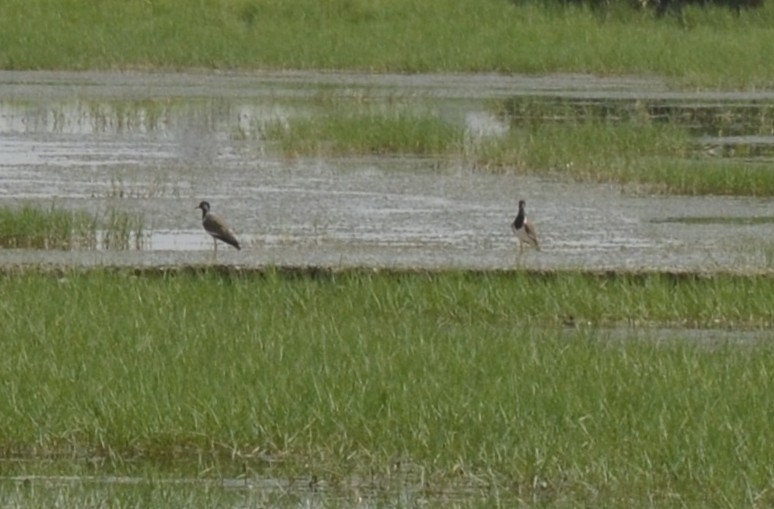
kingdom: Animalia
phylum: Chordata
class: Aves
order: Charadriiformes
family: Charadriidae
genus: Vanellus
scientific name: Vanellus indicus
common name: Red-wattled lapwing
